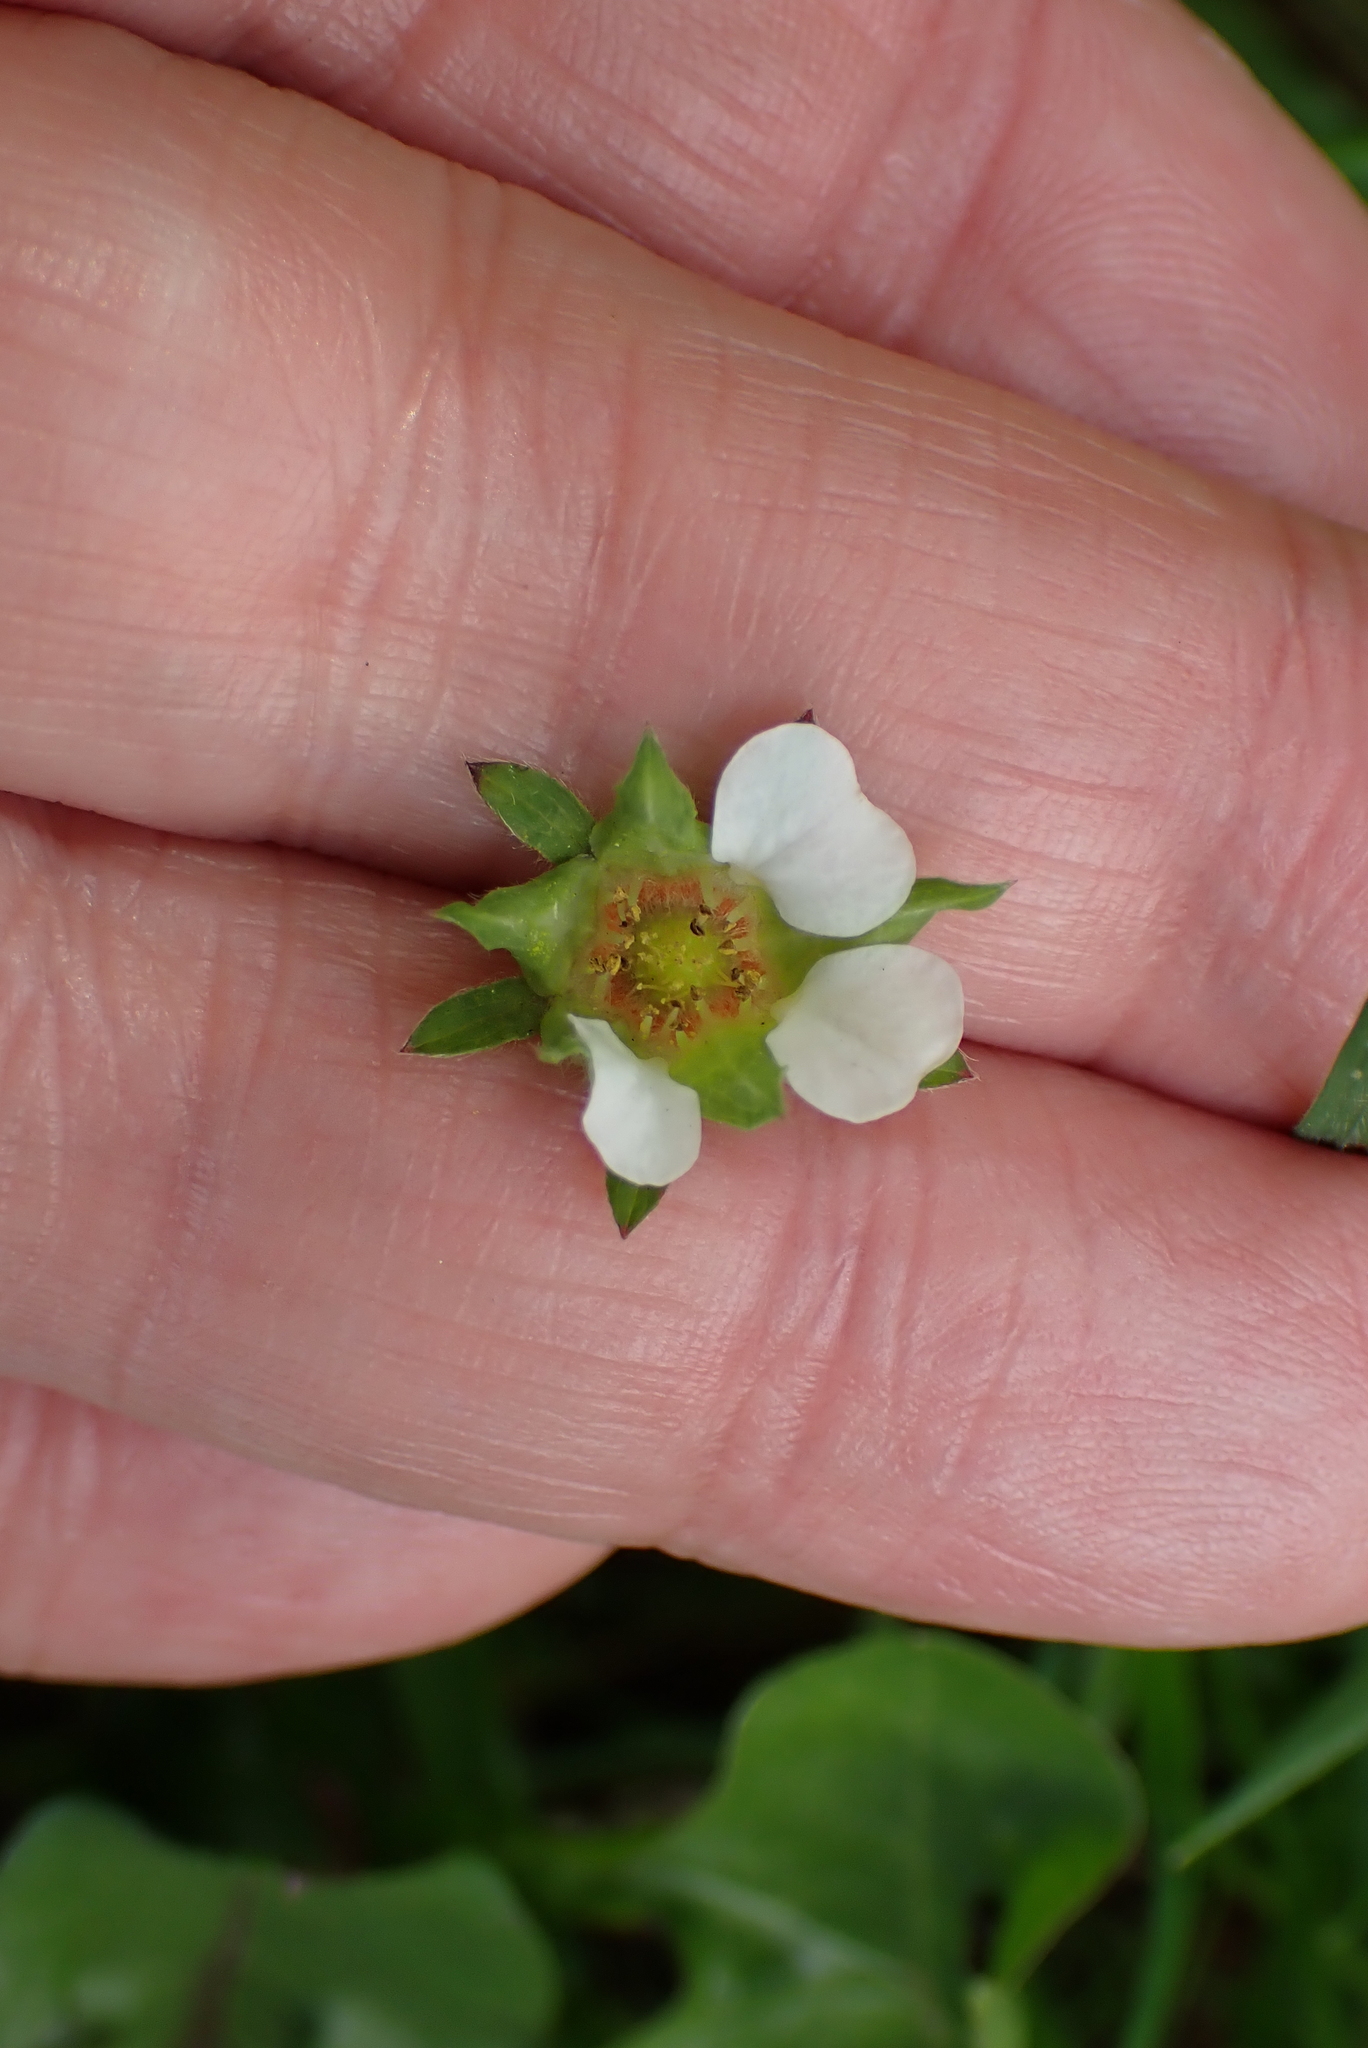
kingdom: Plantae
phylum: Tracheophyta
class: Magnoliopsida
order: Rosales
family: Rosaceae
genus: Potentilla
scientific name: Potentilla sterilis
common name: Barren strawberry
